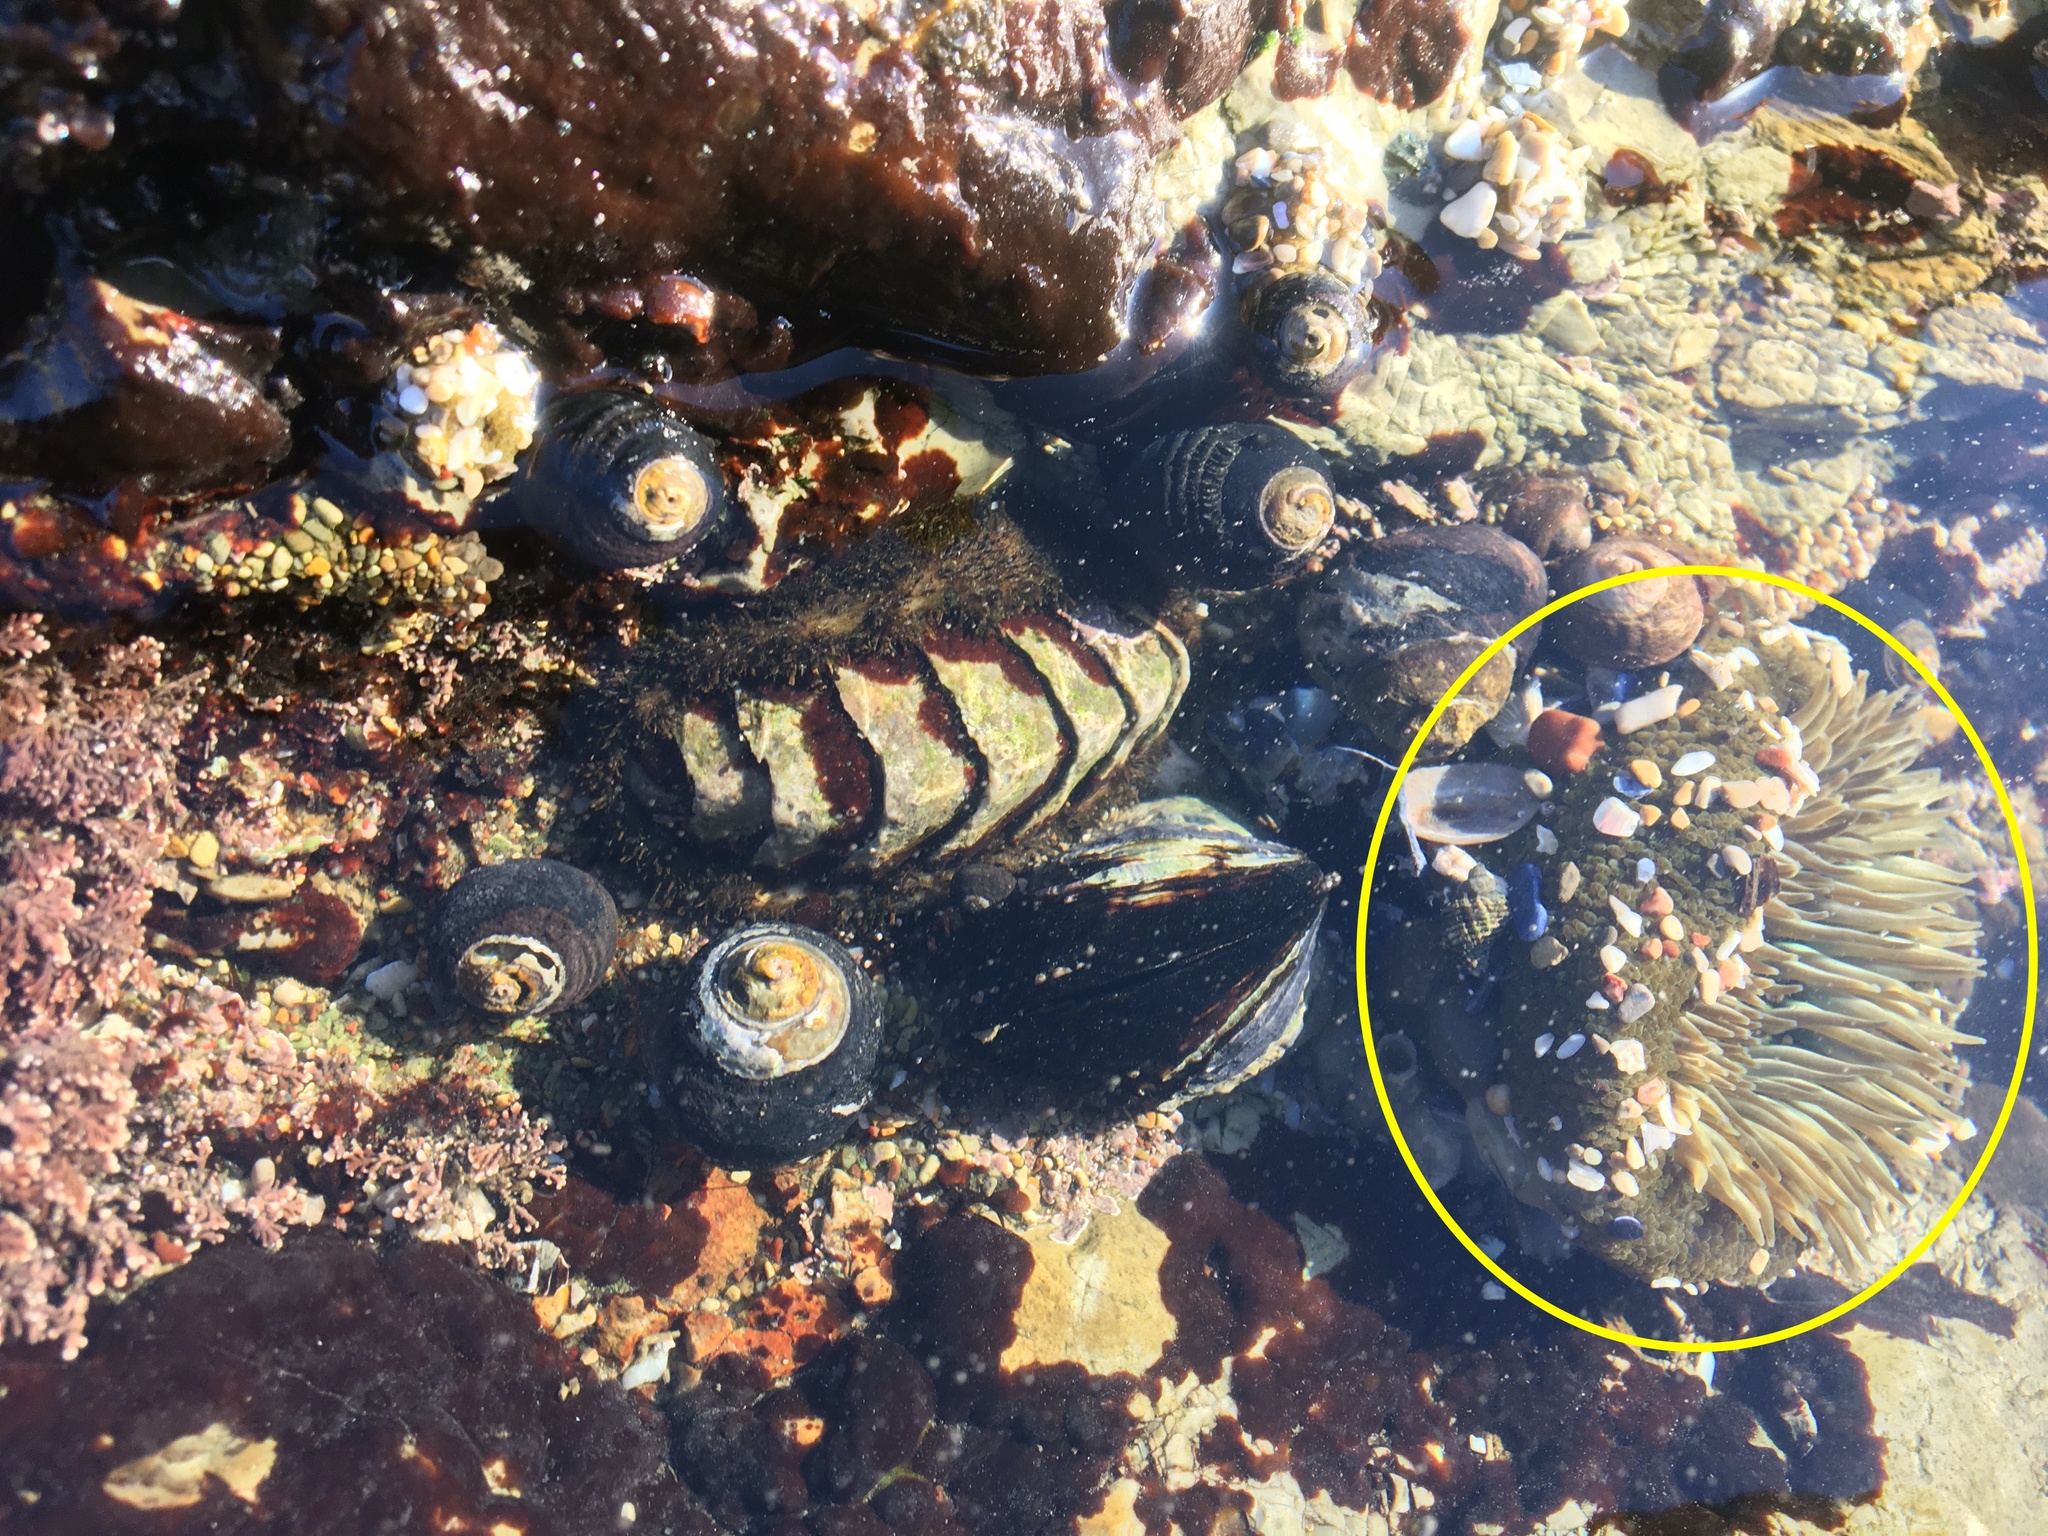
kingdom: Animalia
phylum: Cnidaria
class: Anthozoa
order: Actiniaria
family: Actiniidae
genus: Anthopleura
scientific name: Anthopleura sola
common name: Sun anemone
